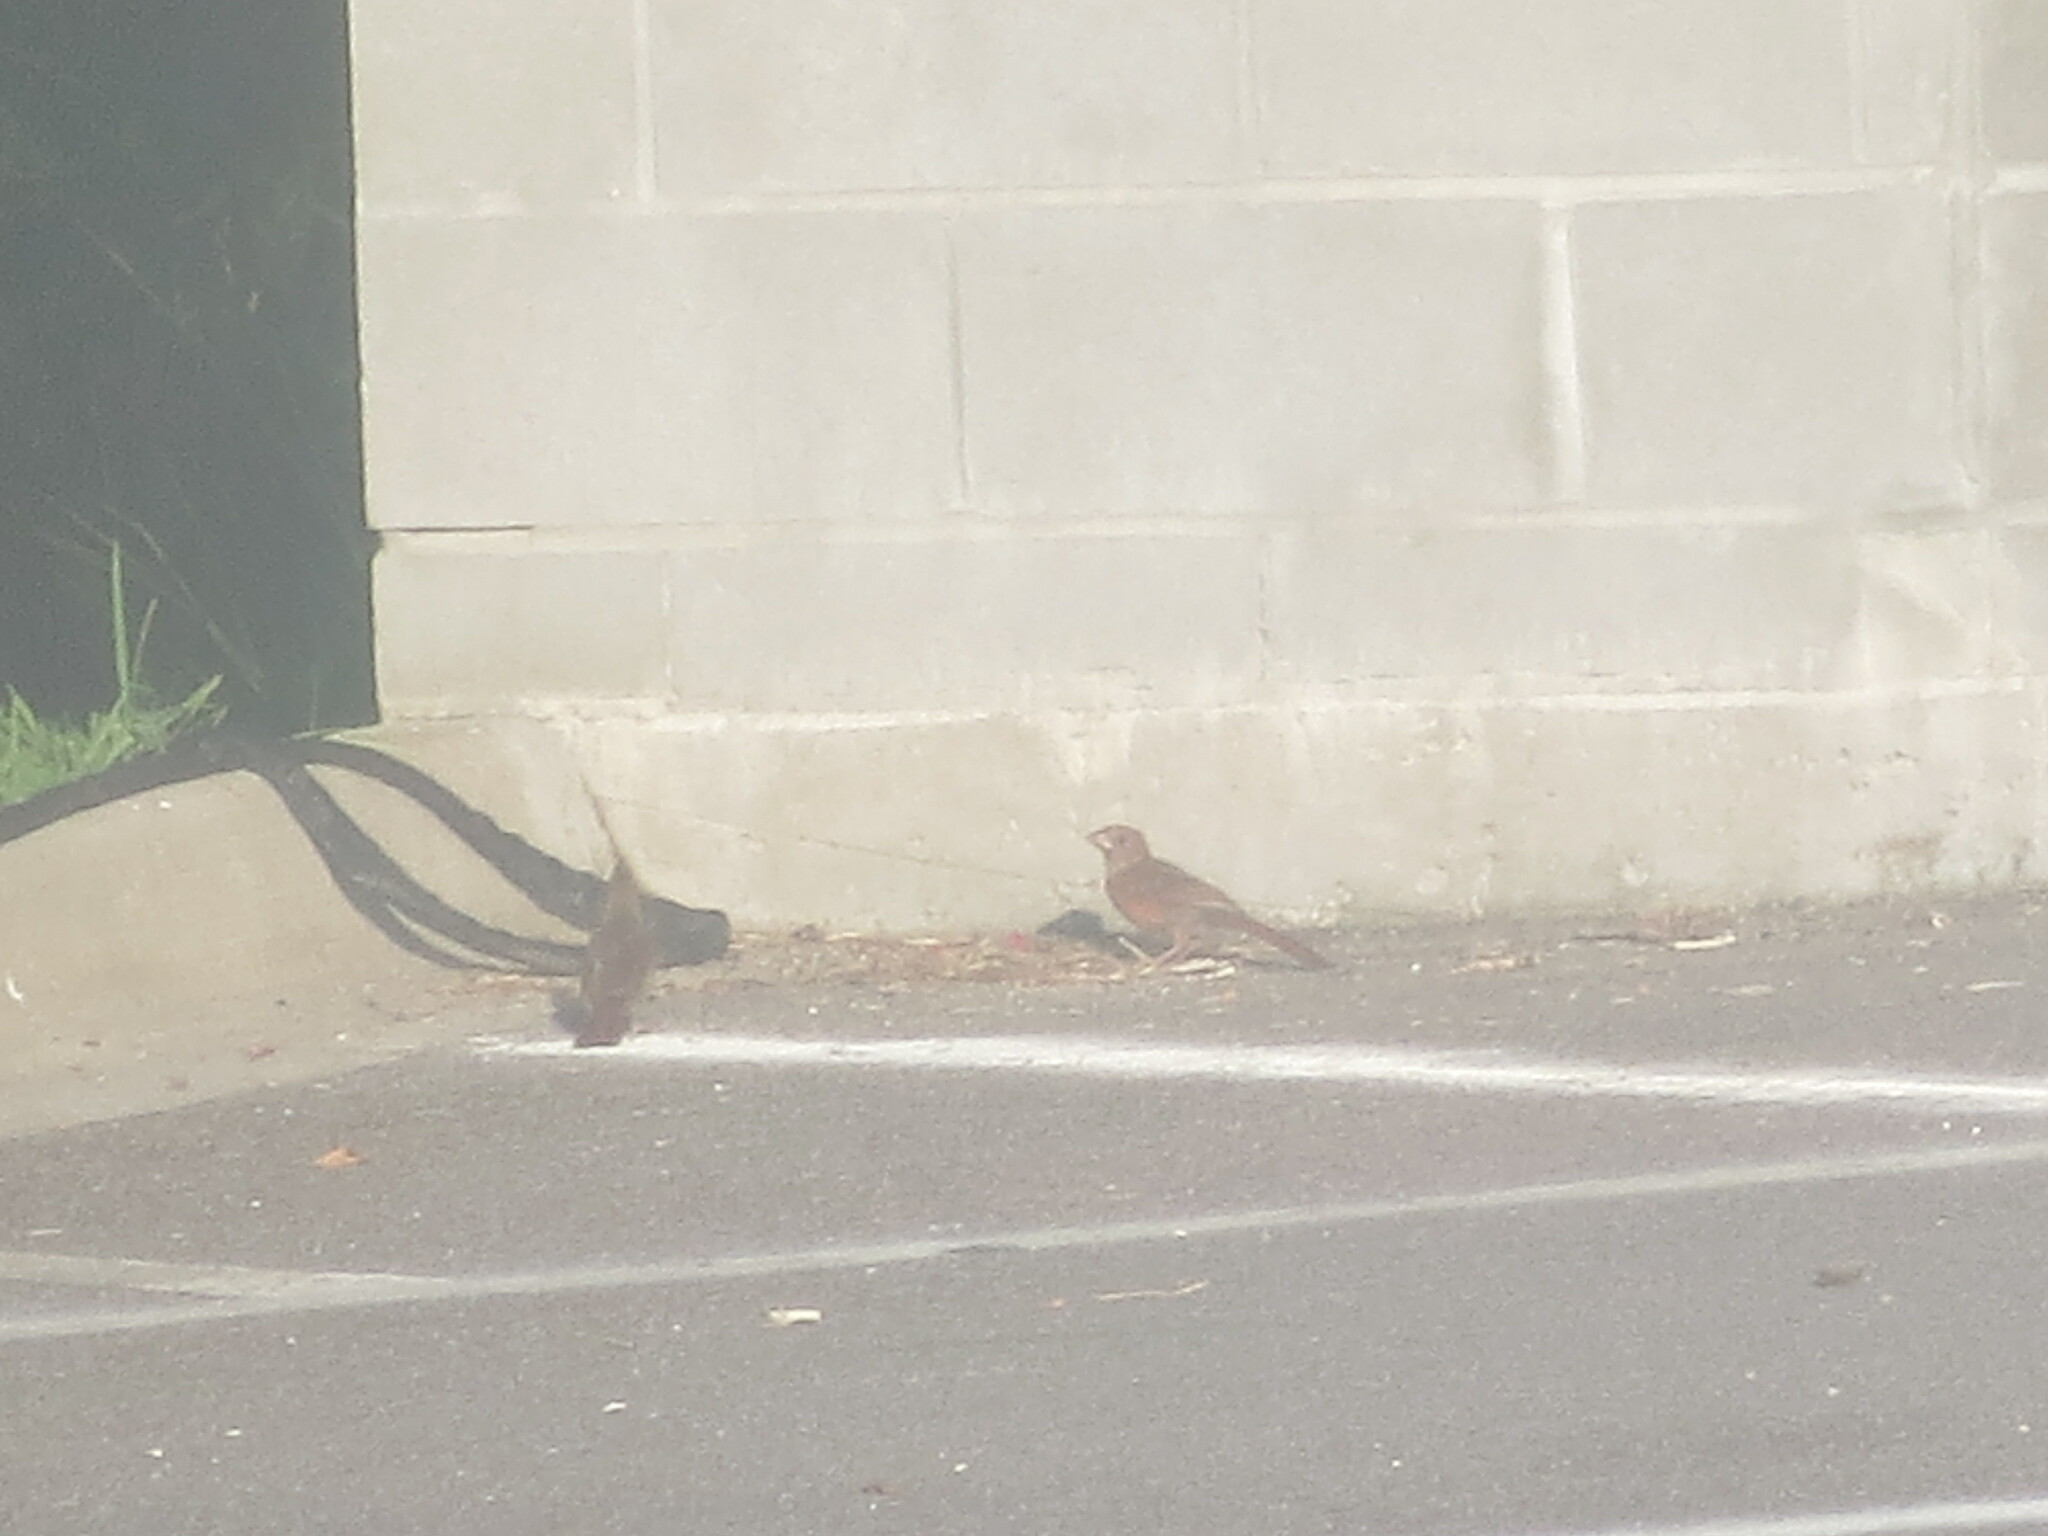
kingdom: Animalia
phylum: Chordata
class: Aves
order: Passeriformes
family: Cardinalidae
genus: Cardinalis
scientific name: Cardinalis cardinalis
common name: Northern cardinal
